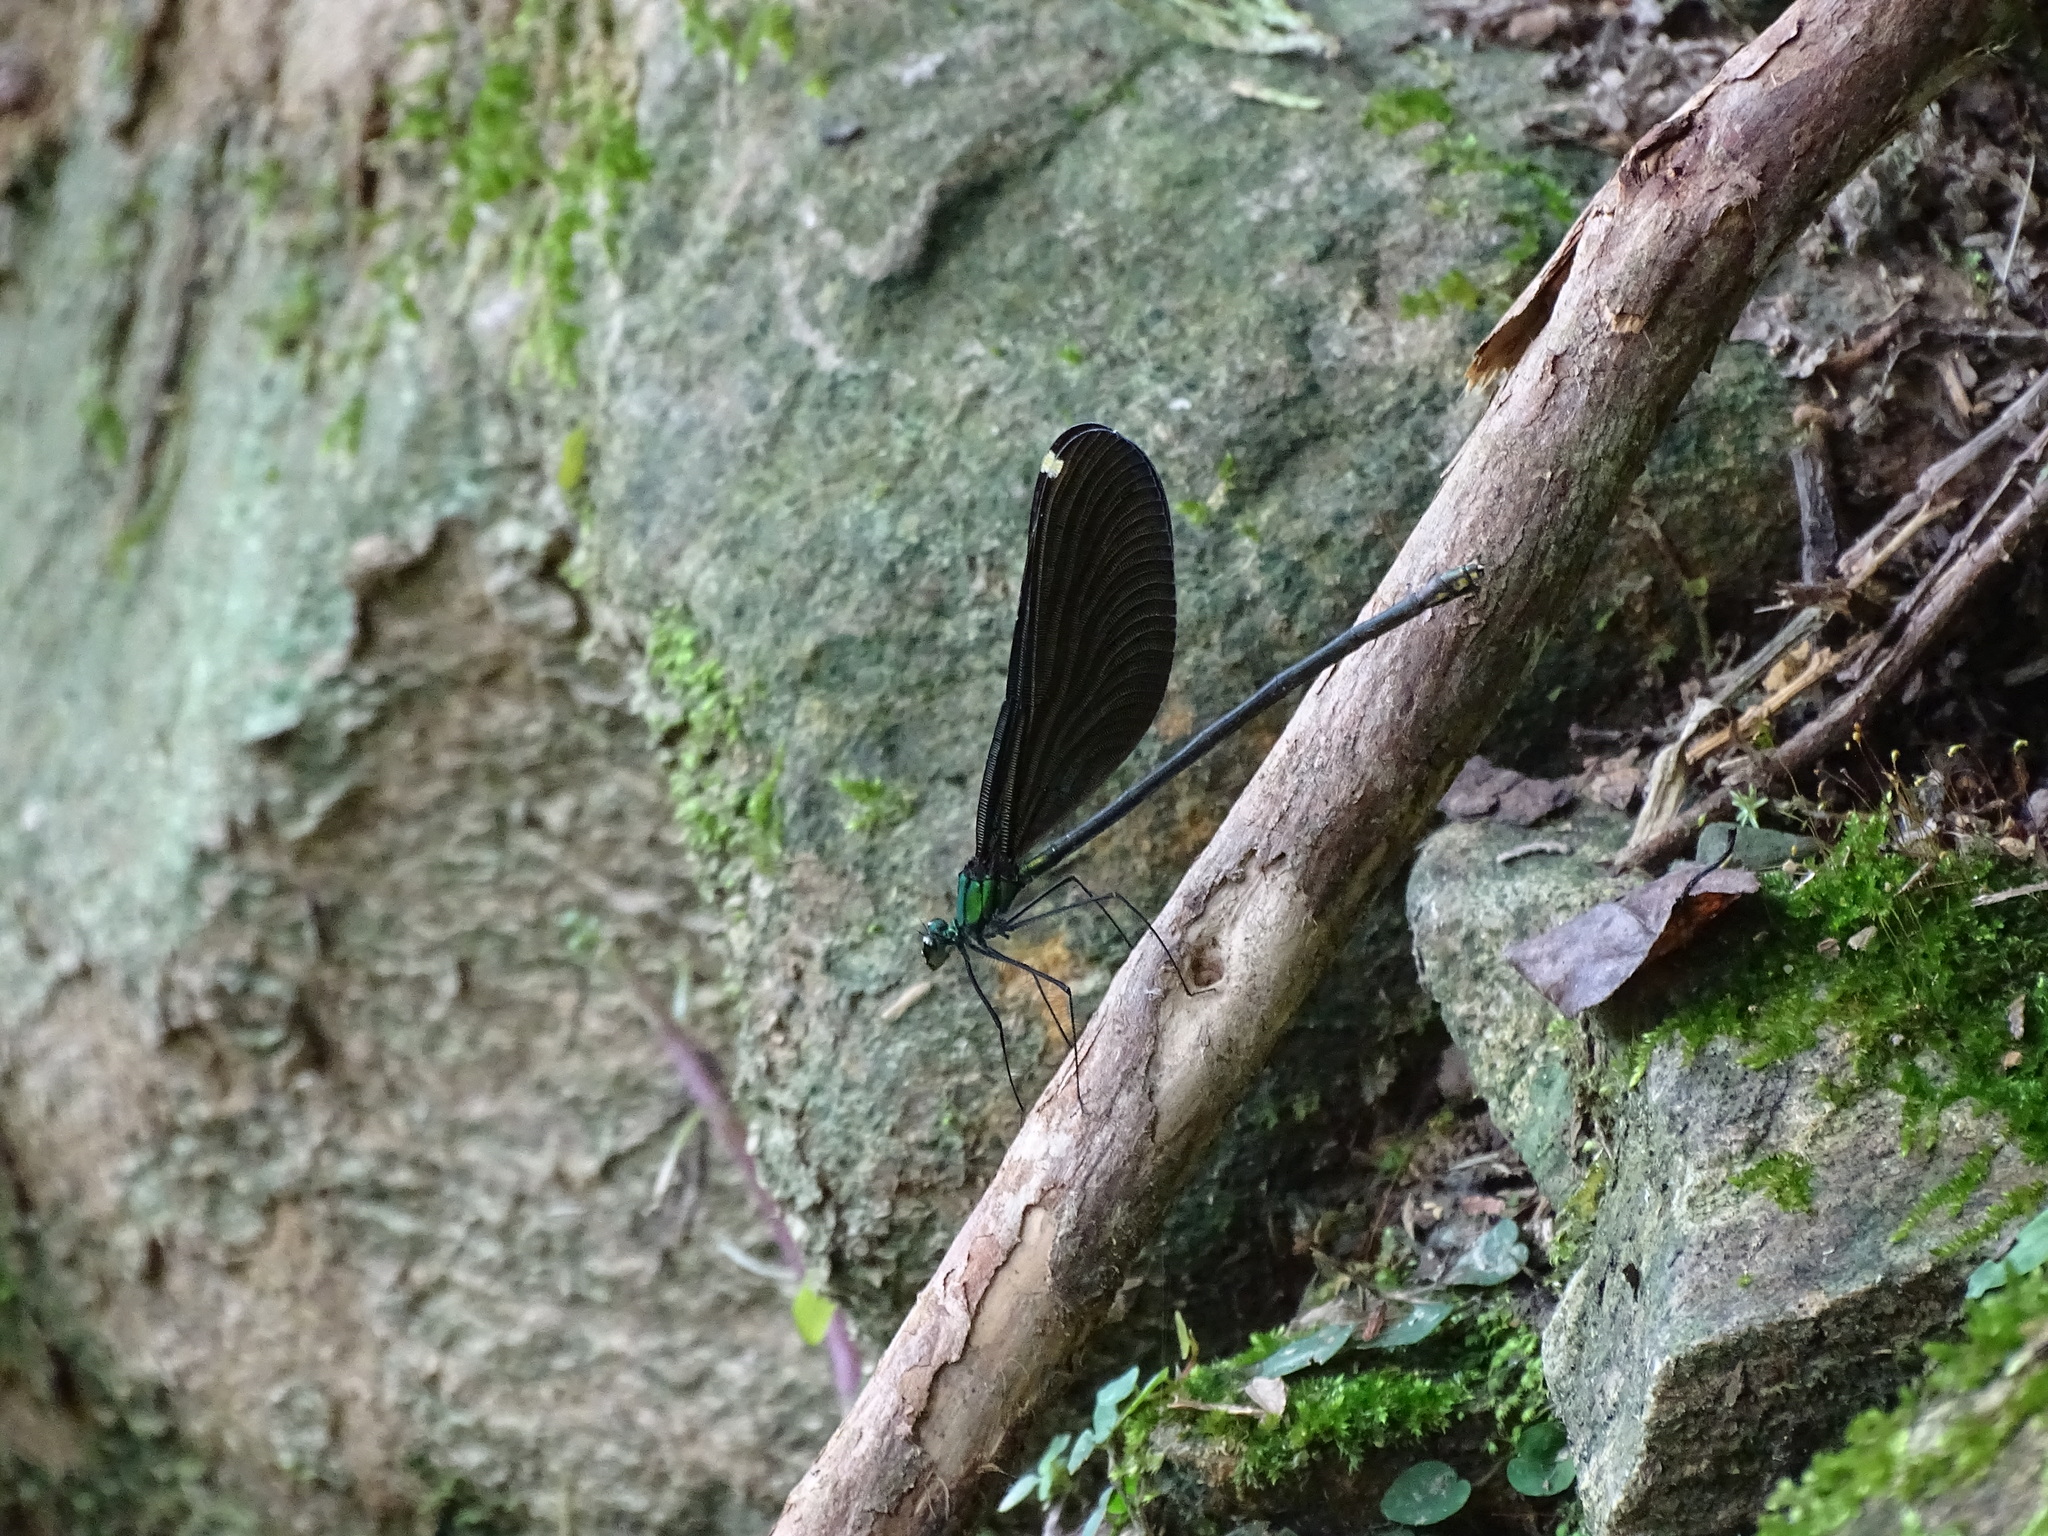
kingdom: Animalia
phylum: Arthropoda
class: Insecta
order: Odonata
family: Calopterygidae
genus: Matrona
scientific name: Matrona cyanoptera
